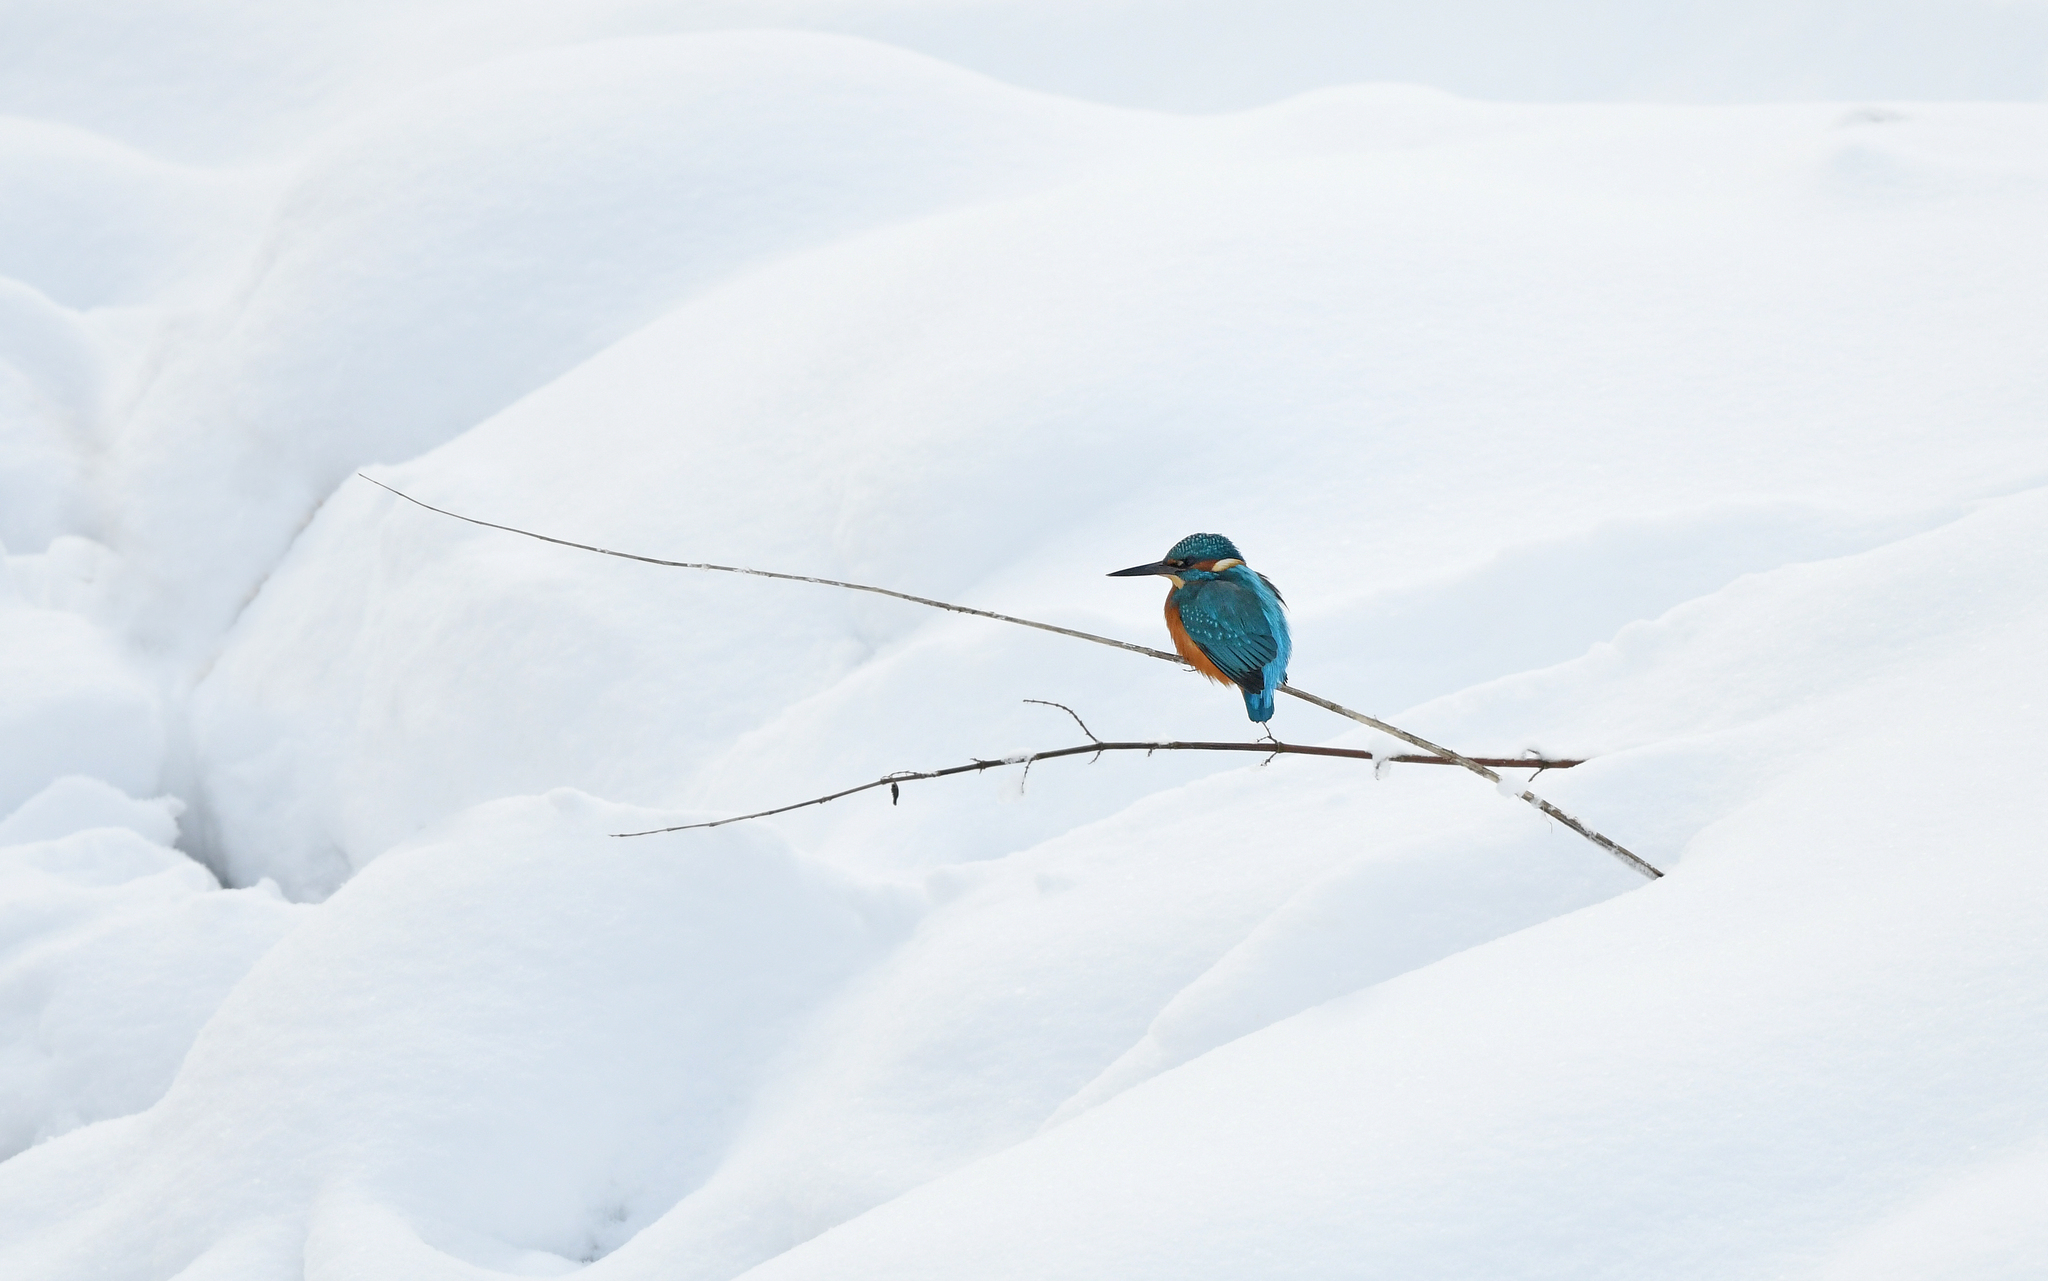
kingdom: Animalia
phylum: Chordata
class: Aves
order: Coraciiformes
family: Alcedinidae
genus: Alcedo
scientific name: Alcedo atthis
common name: Common kingfisher
